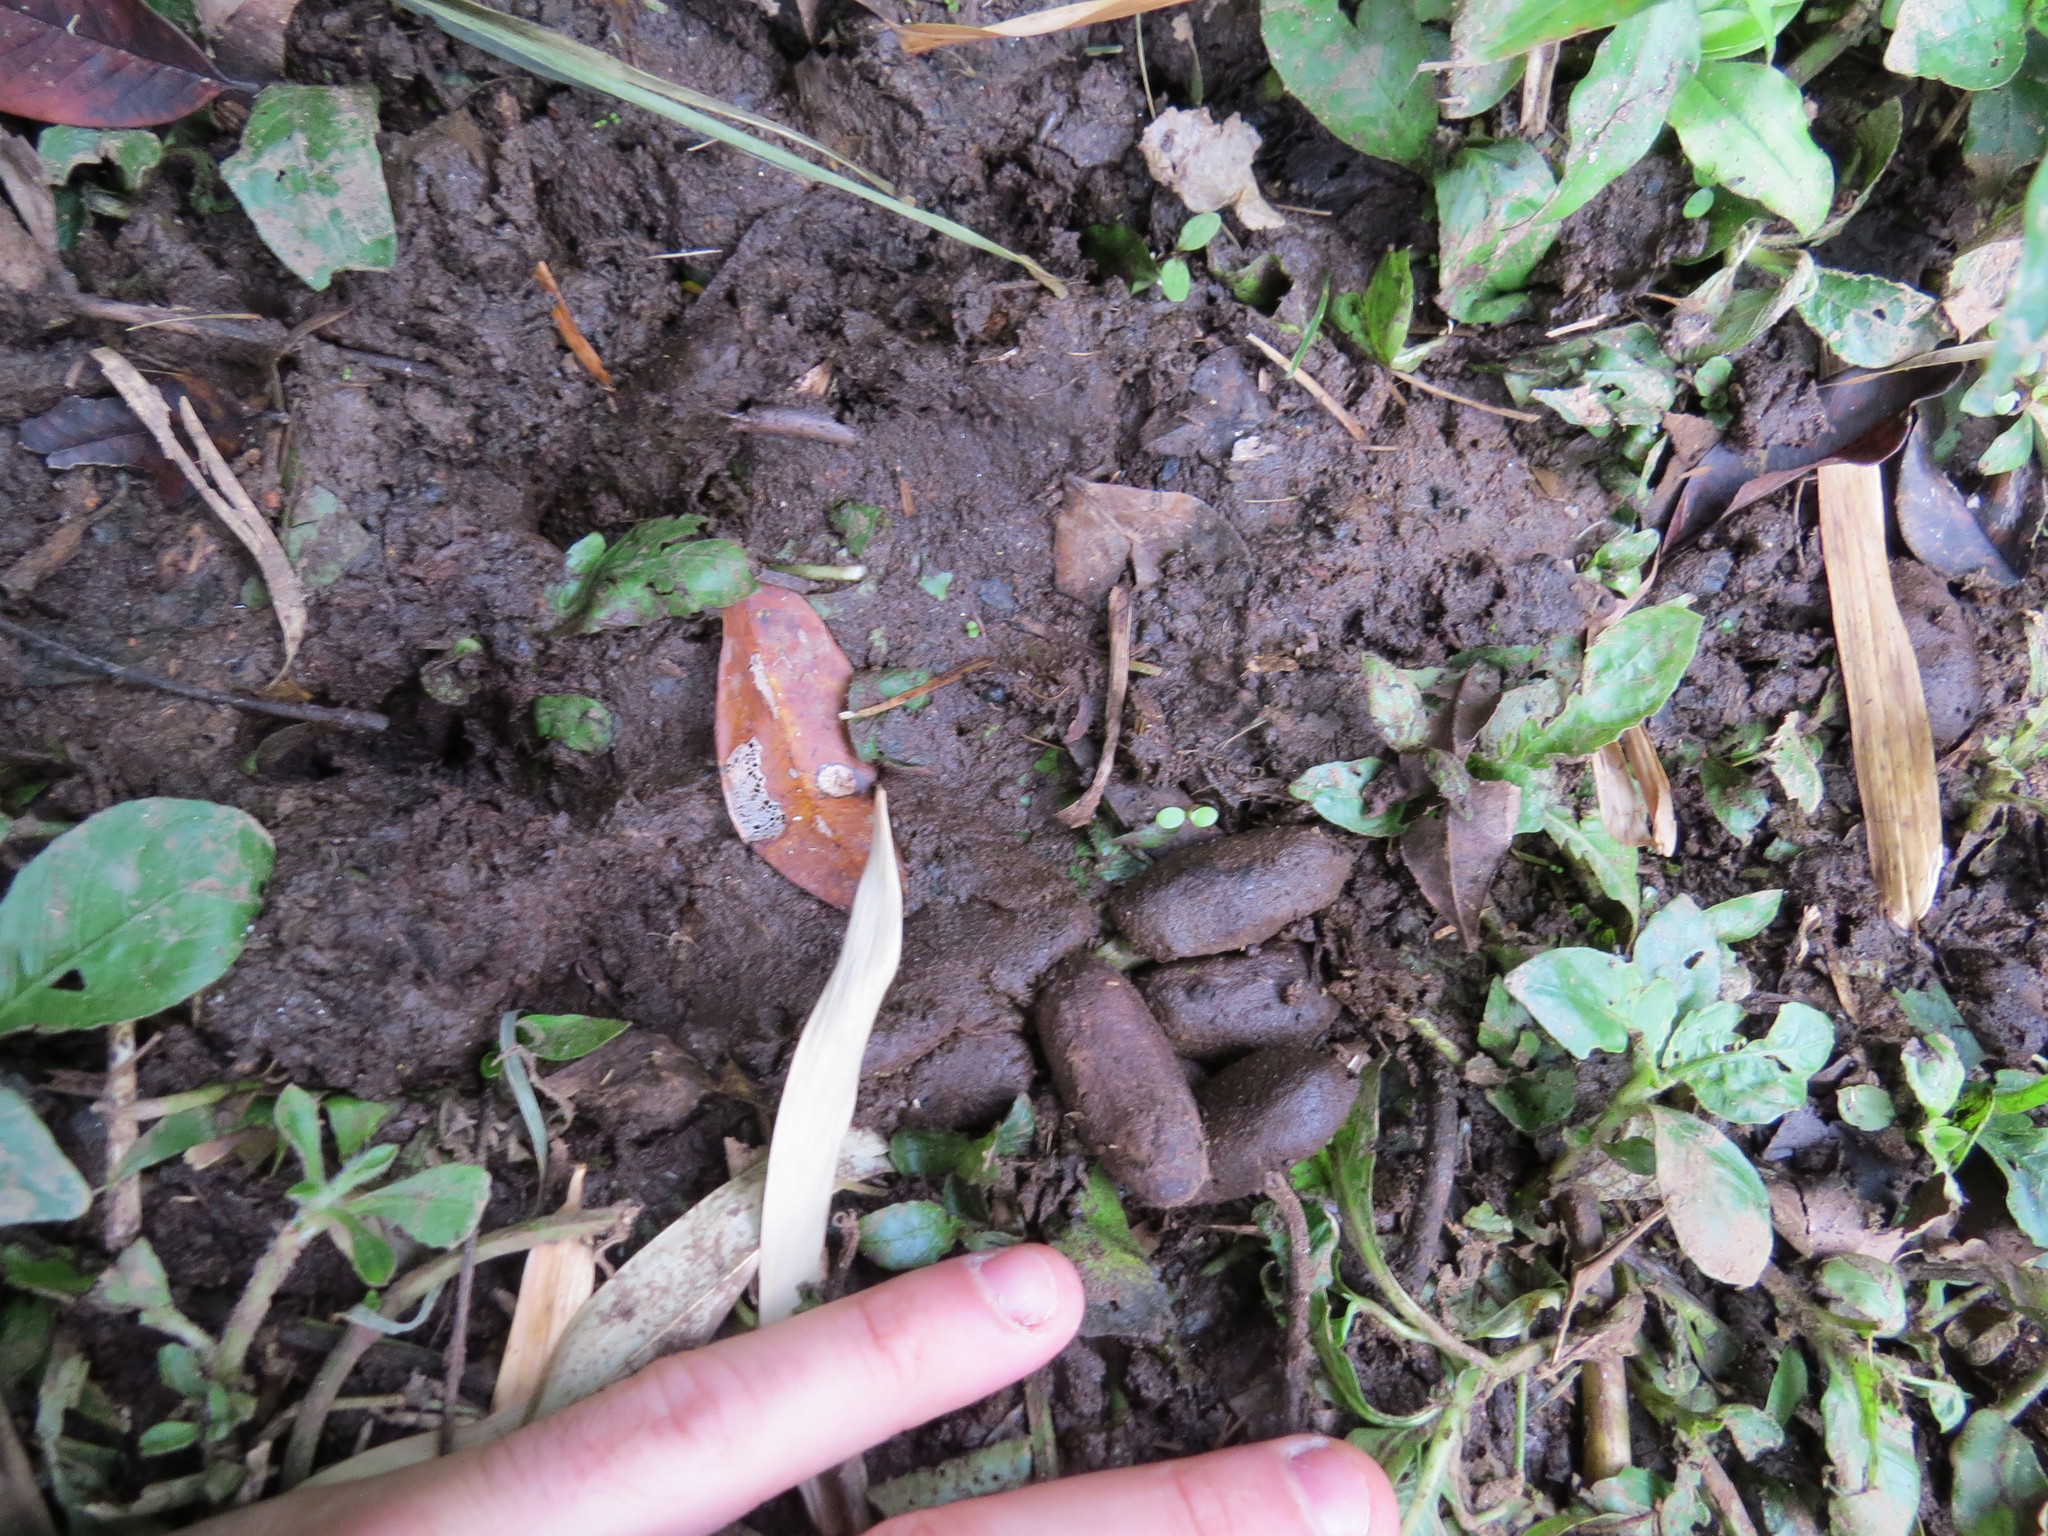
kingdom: Animalia
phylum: Chordata
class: Mammalia
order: Rodentia
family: Caviidae
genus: Hydrochoerus
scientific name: Hydrochoerus hydrochaeris
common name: Capybara
